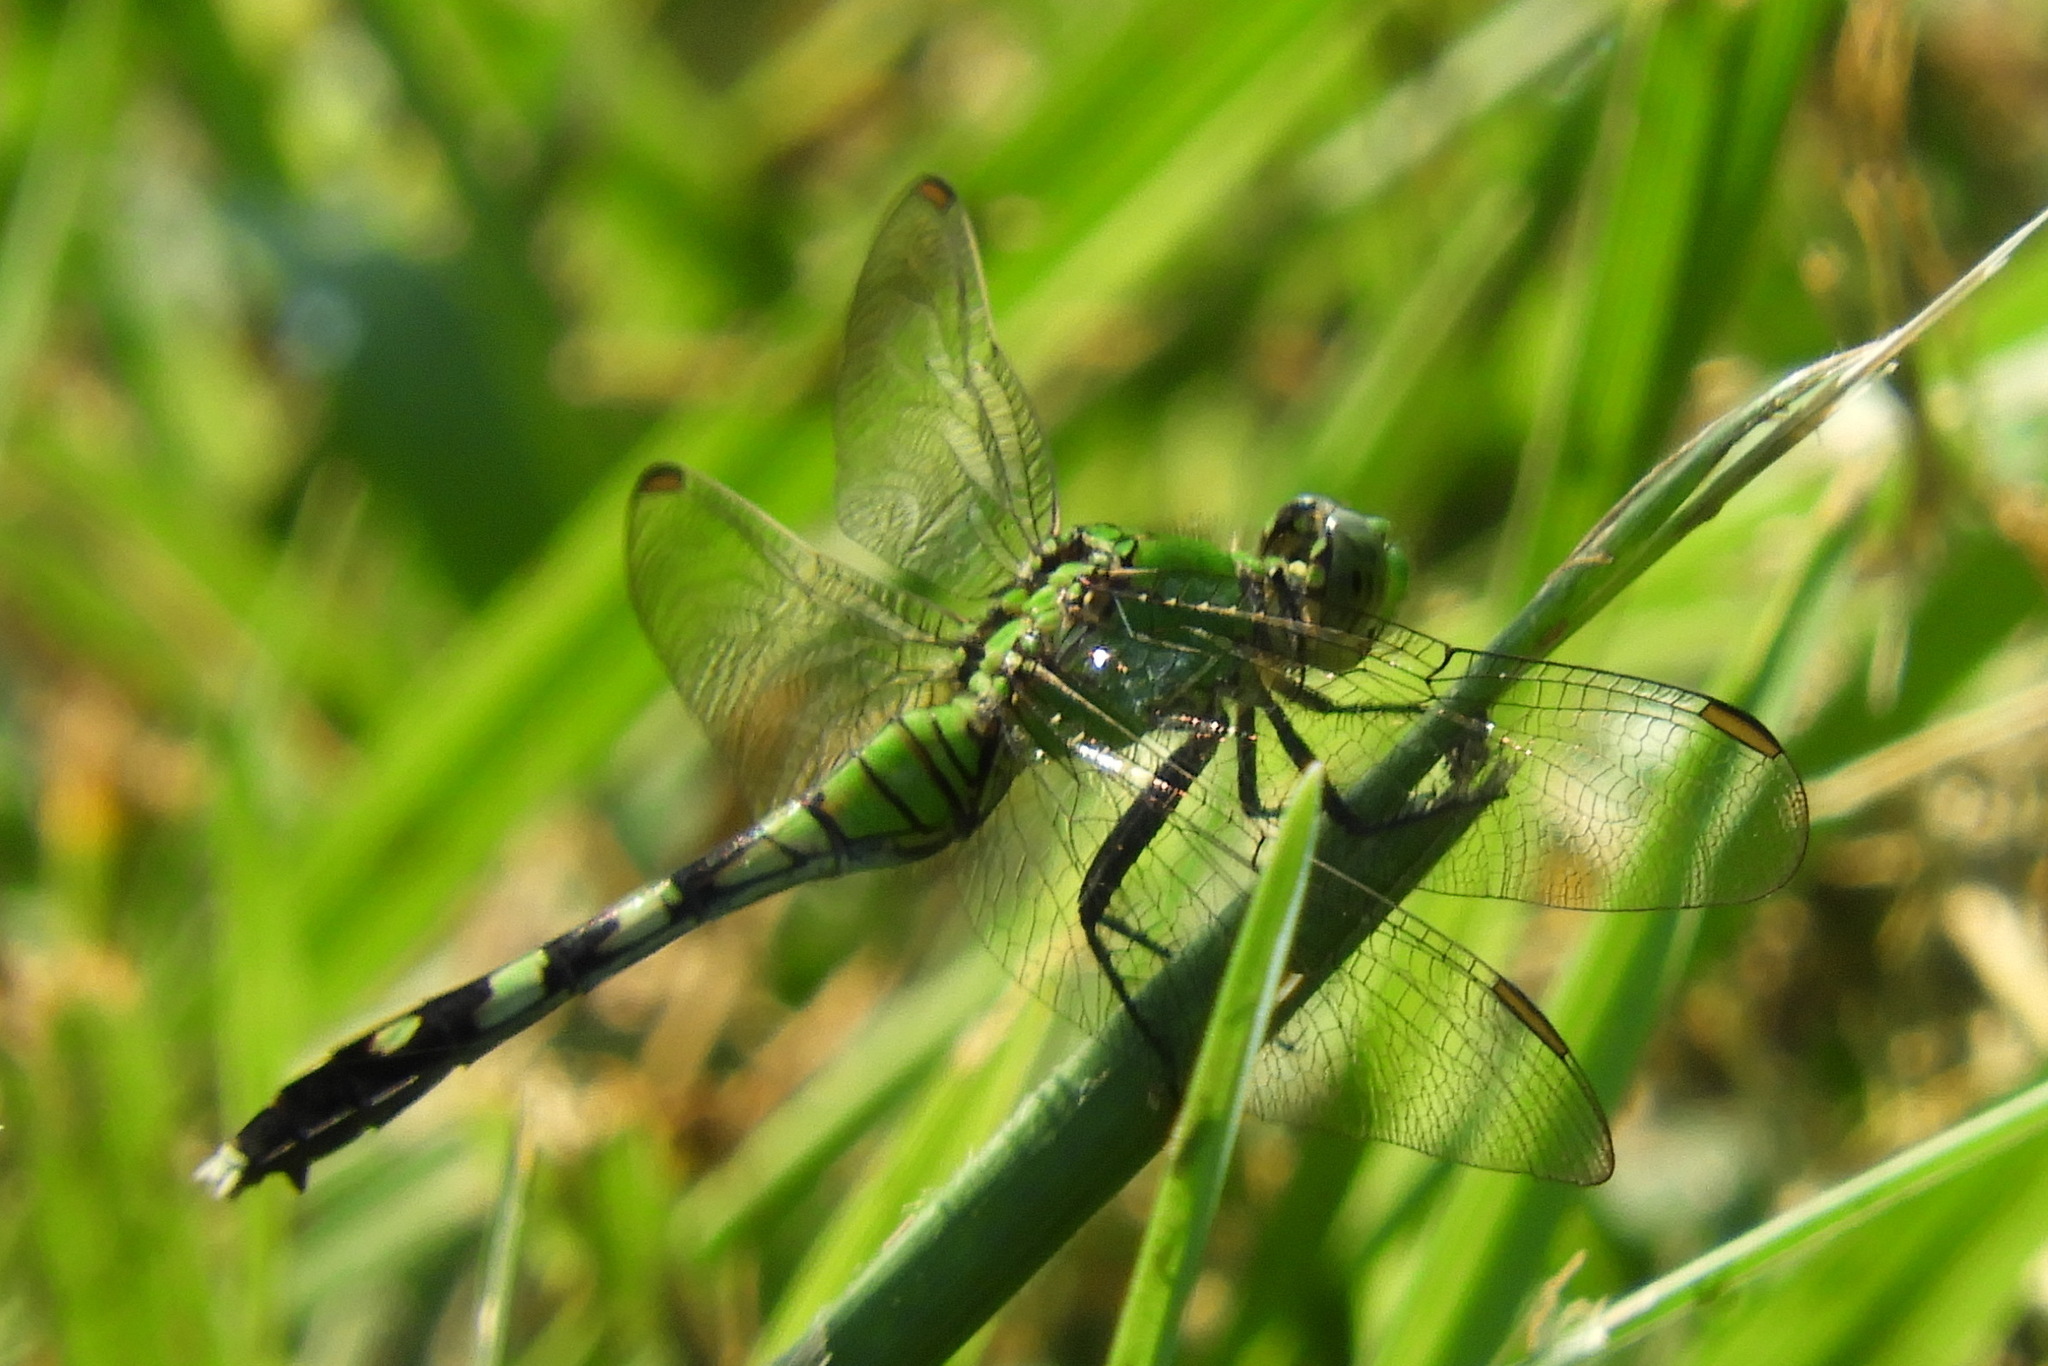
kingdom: Animalia
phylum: Arthropoda
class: Insecta
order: Odonata
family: Libellulidae
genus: Erythemis
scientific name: Erythemis simplicicollis
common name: Eastern pondhawk
